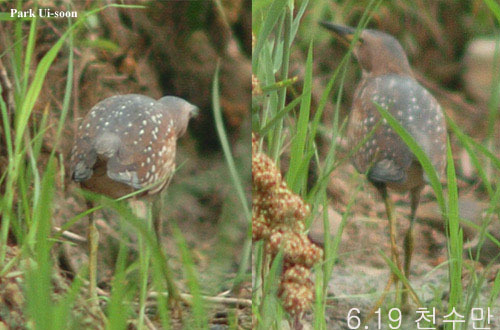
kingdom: Animalia
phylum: Chordata
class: Aves
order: Pelecaniformes
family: Ardeidae
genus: Ixobrychus
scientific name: Ixobrychus eurhythmus
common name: Von schrenck's bittern
